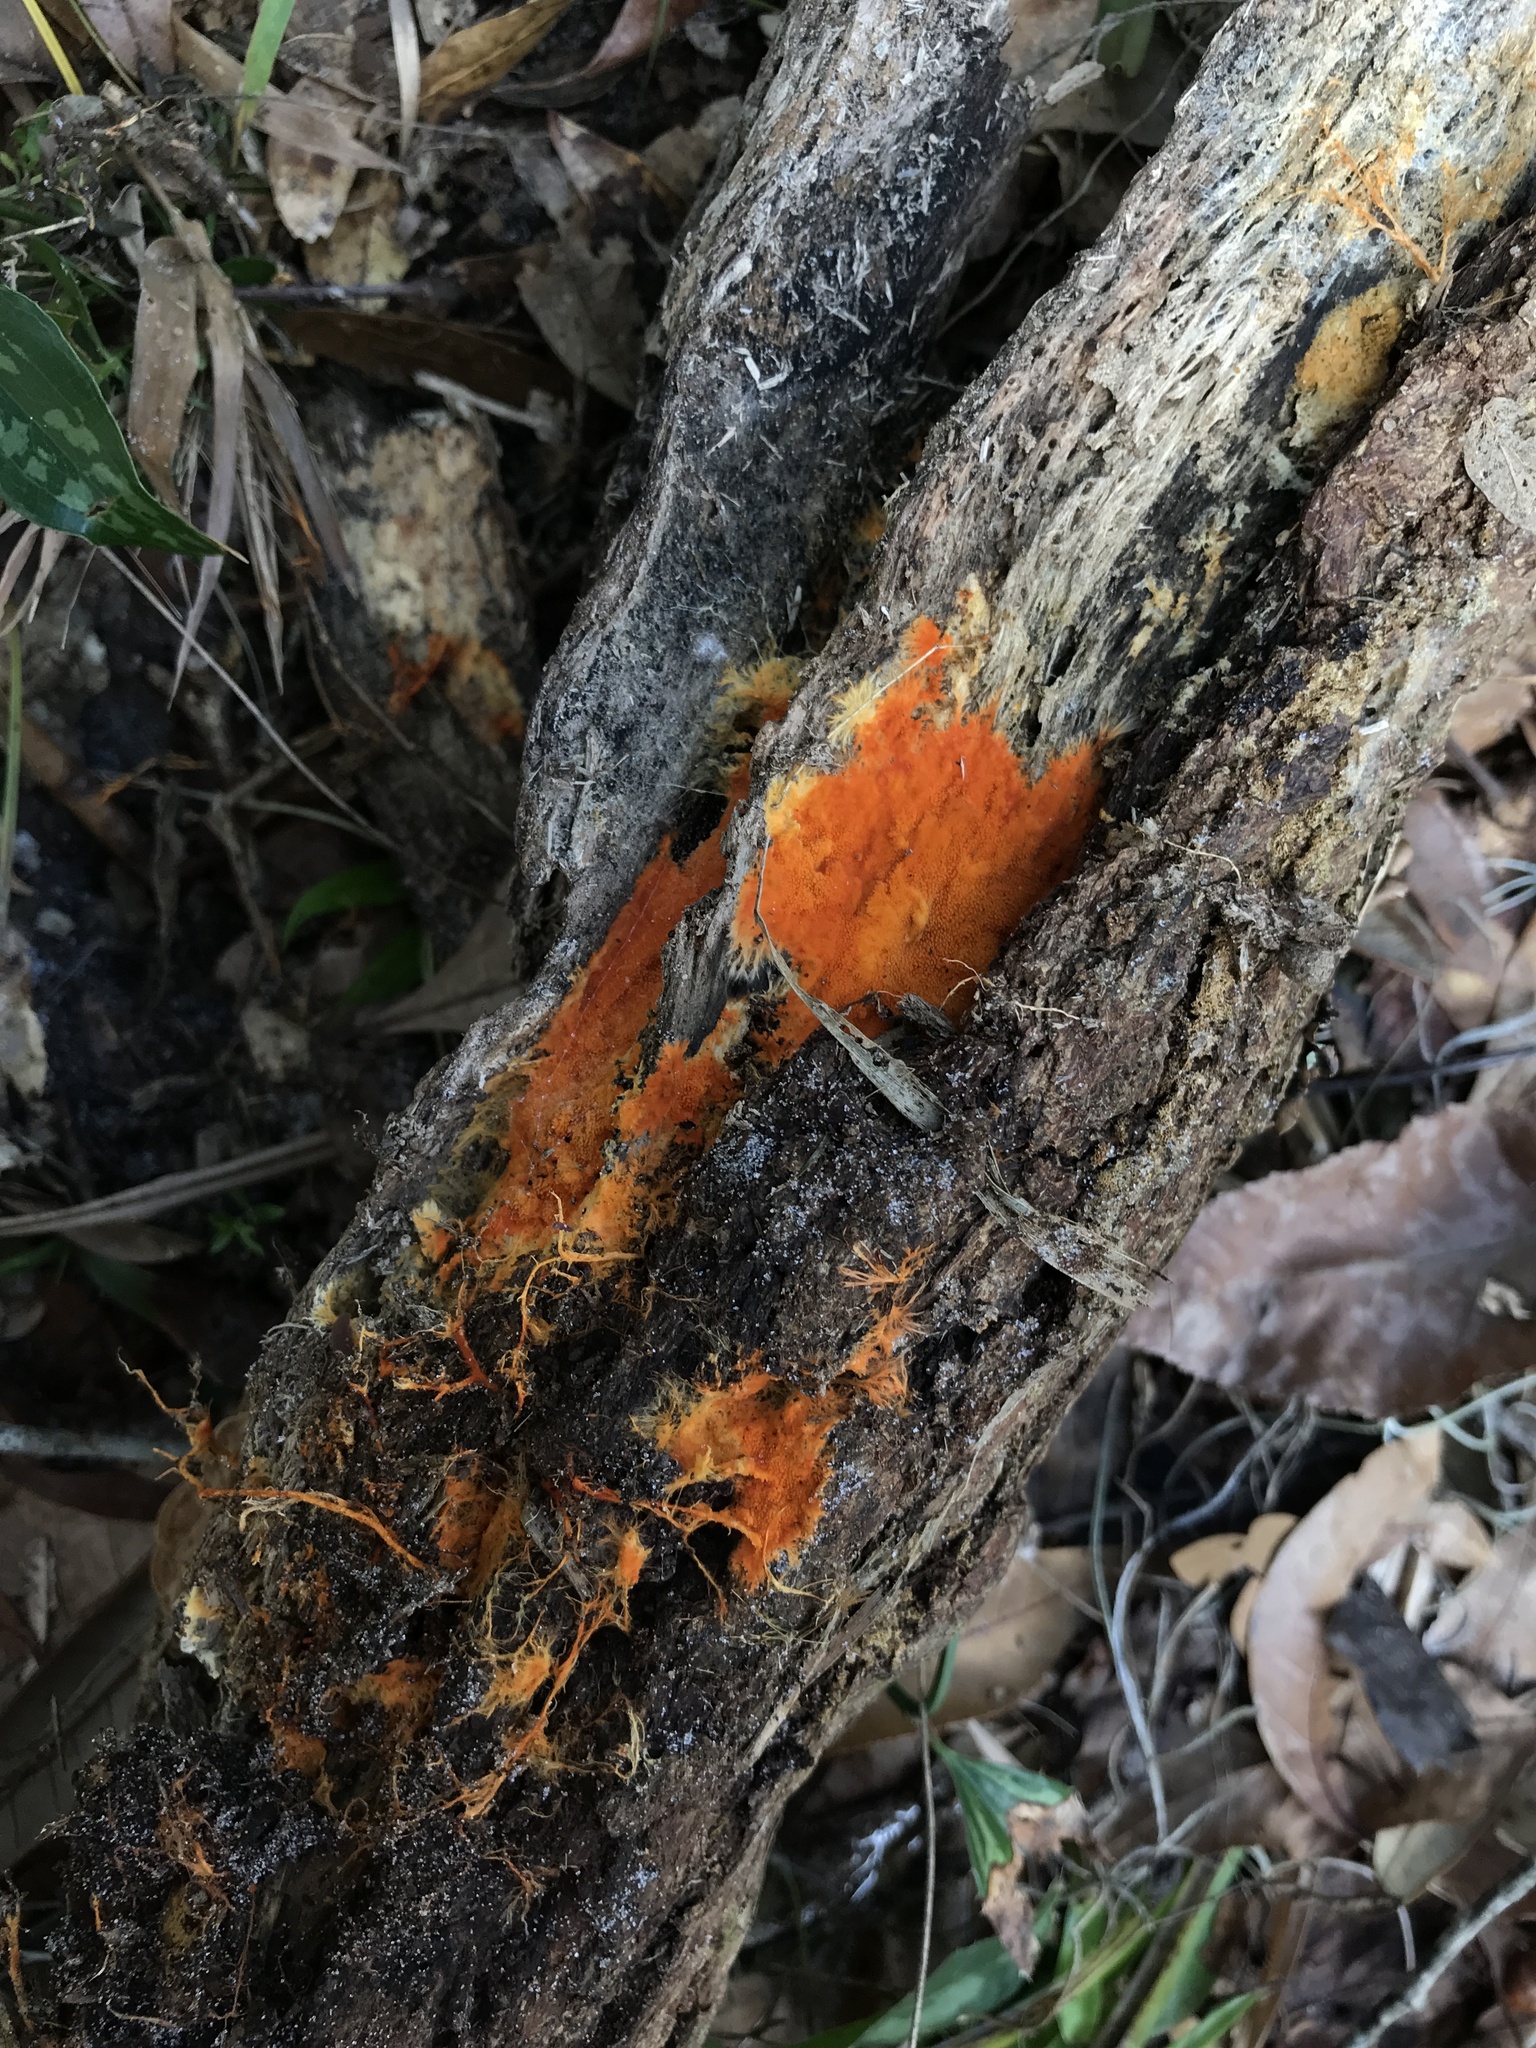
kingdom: Fungi
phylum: Basidiomycota
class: Agaricomycetes
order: Polyporales
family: Meruliaceae
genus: Hydnophlebia
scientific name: Hydnophlebia chrysorhiza
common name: Spreading yellow tooth
